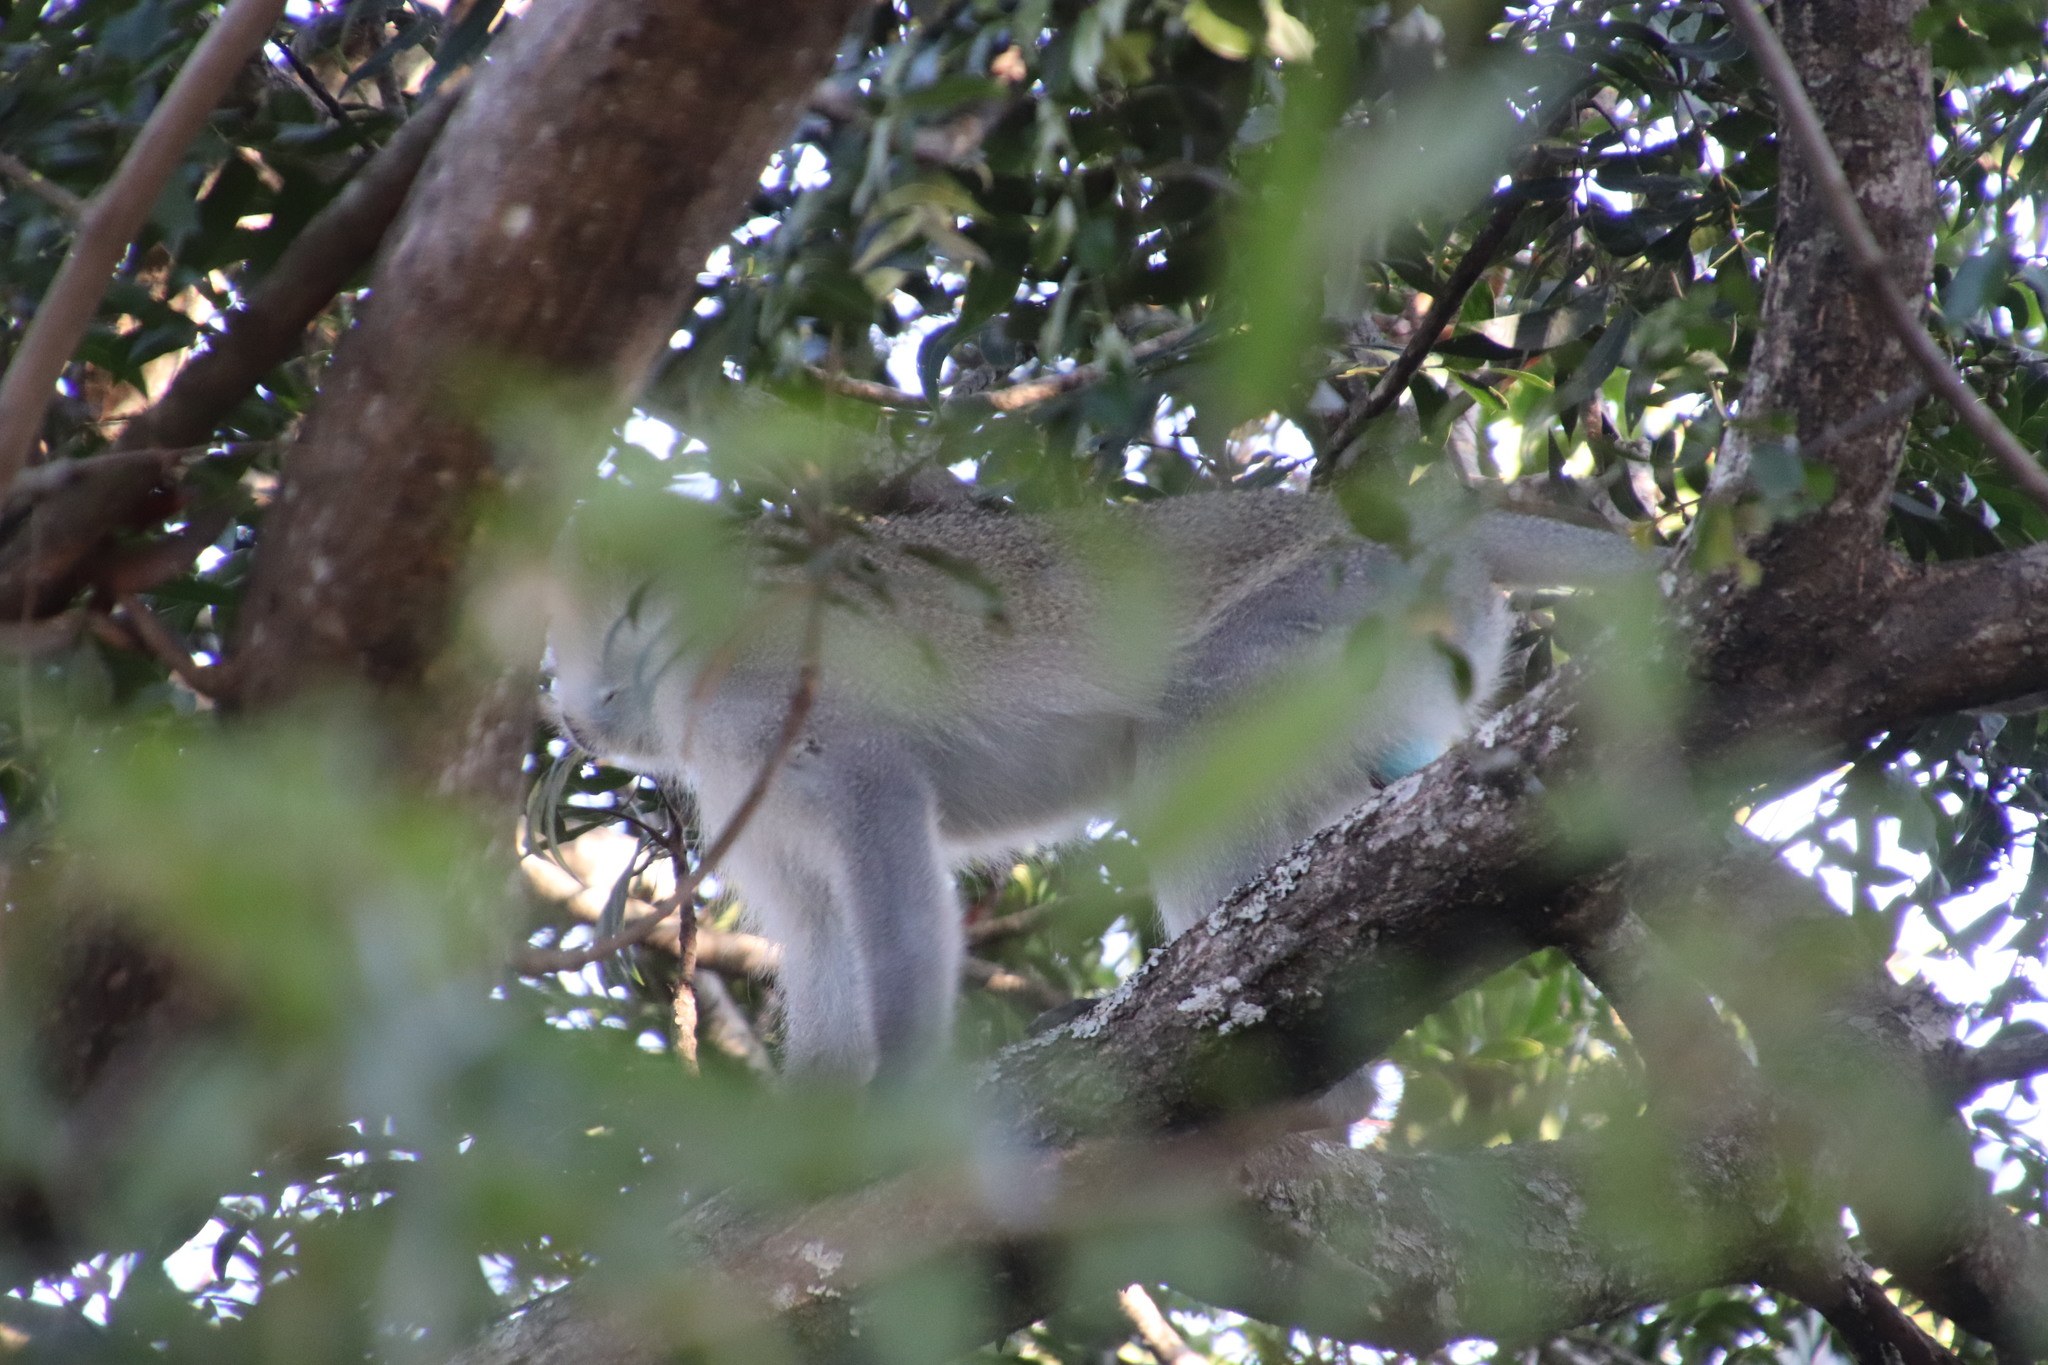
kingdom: Animalia
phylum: Chordata
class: Mammalia
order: Primates
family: Cercopithecidae
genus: Chlorocebus
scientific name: Chlorocebus pygerythrus
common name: Vervet monkey
